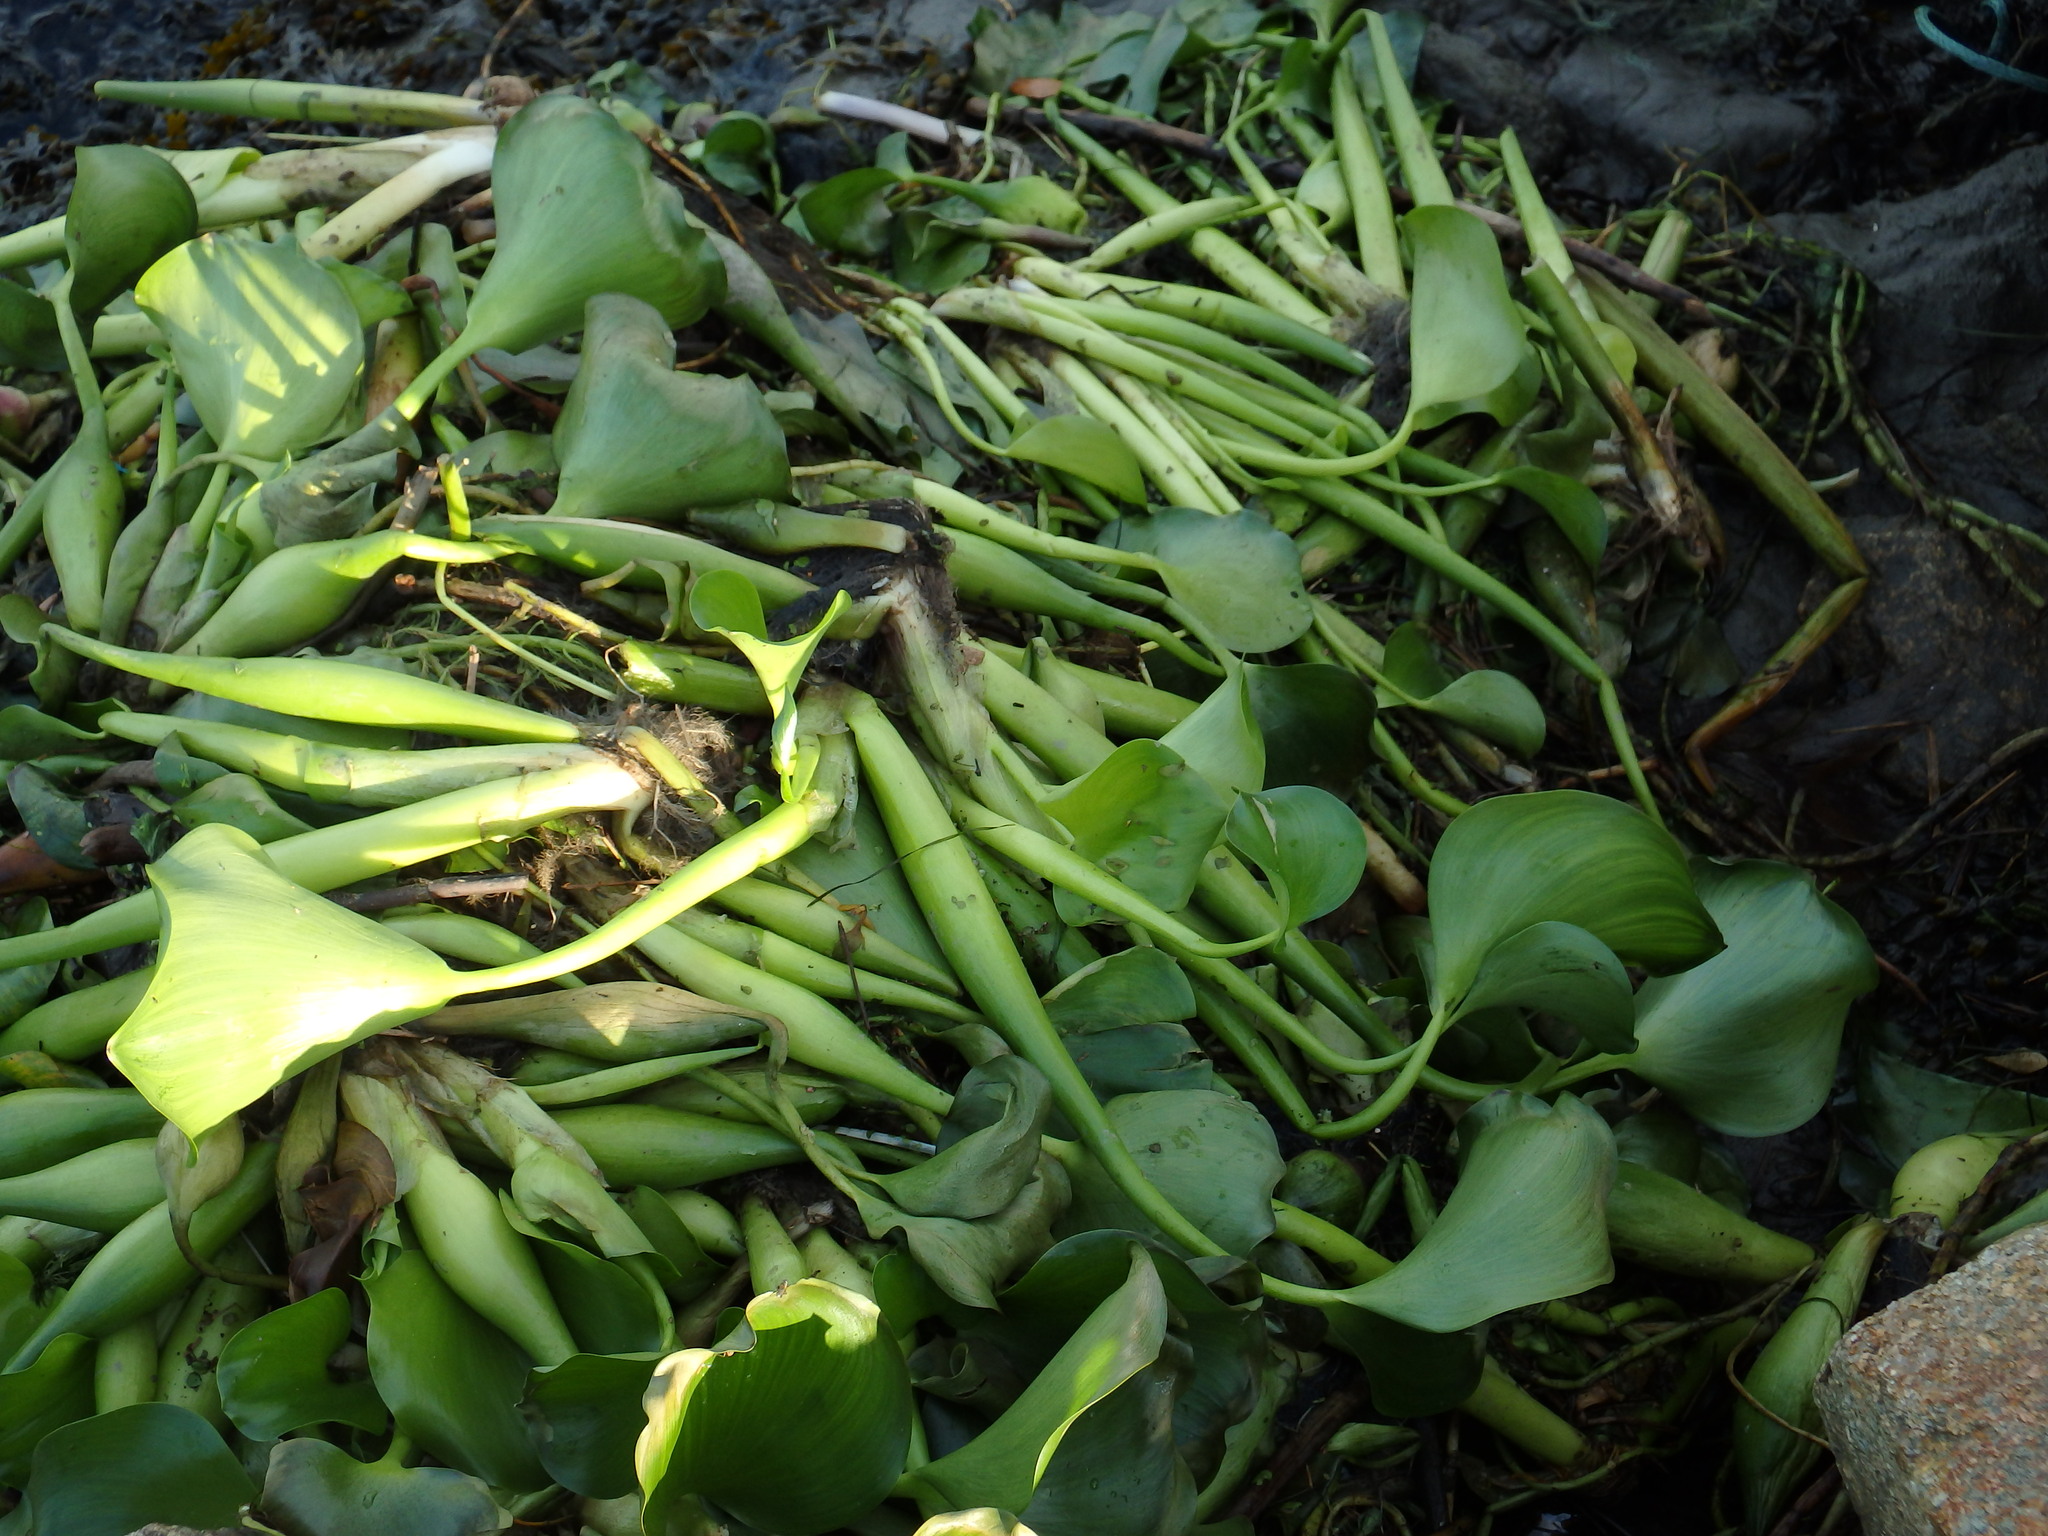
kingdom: Plantae
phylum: Tracheophyta
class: Liliopsida
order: Commelinales
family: Pontederiaceae
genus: Pontederia
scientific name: Pontederia crassipes
